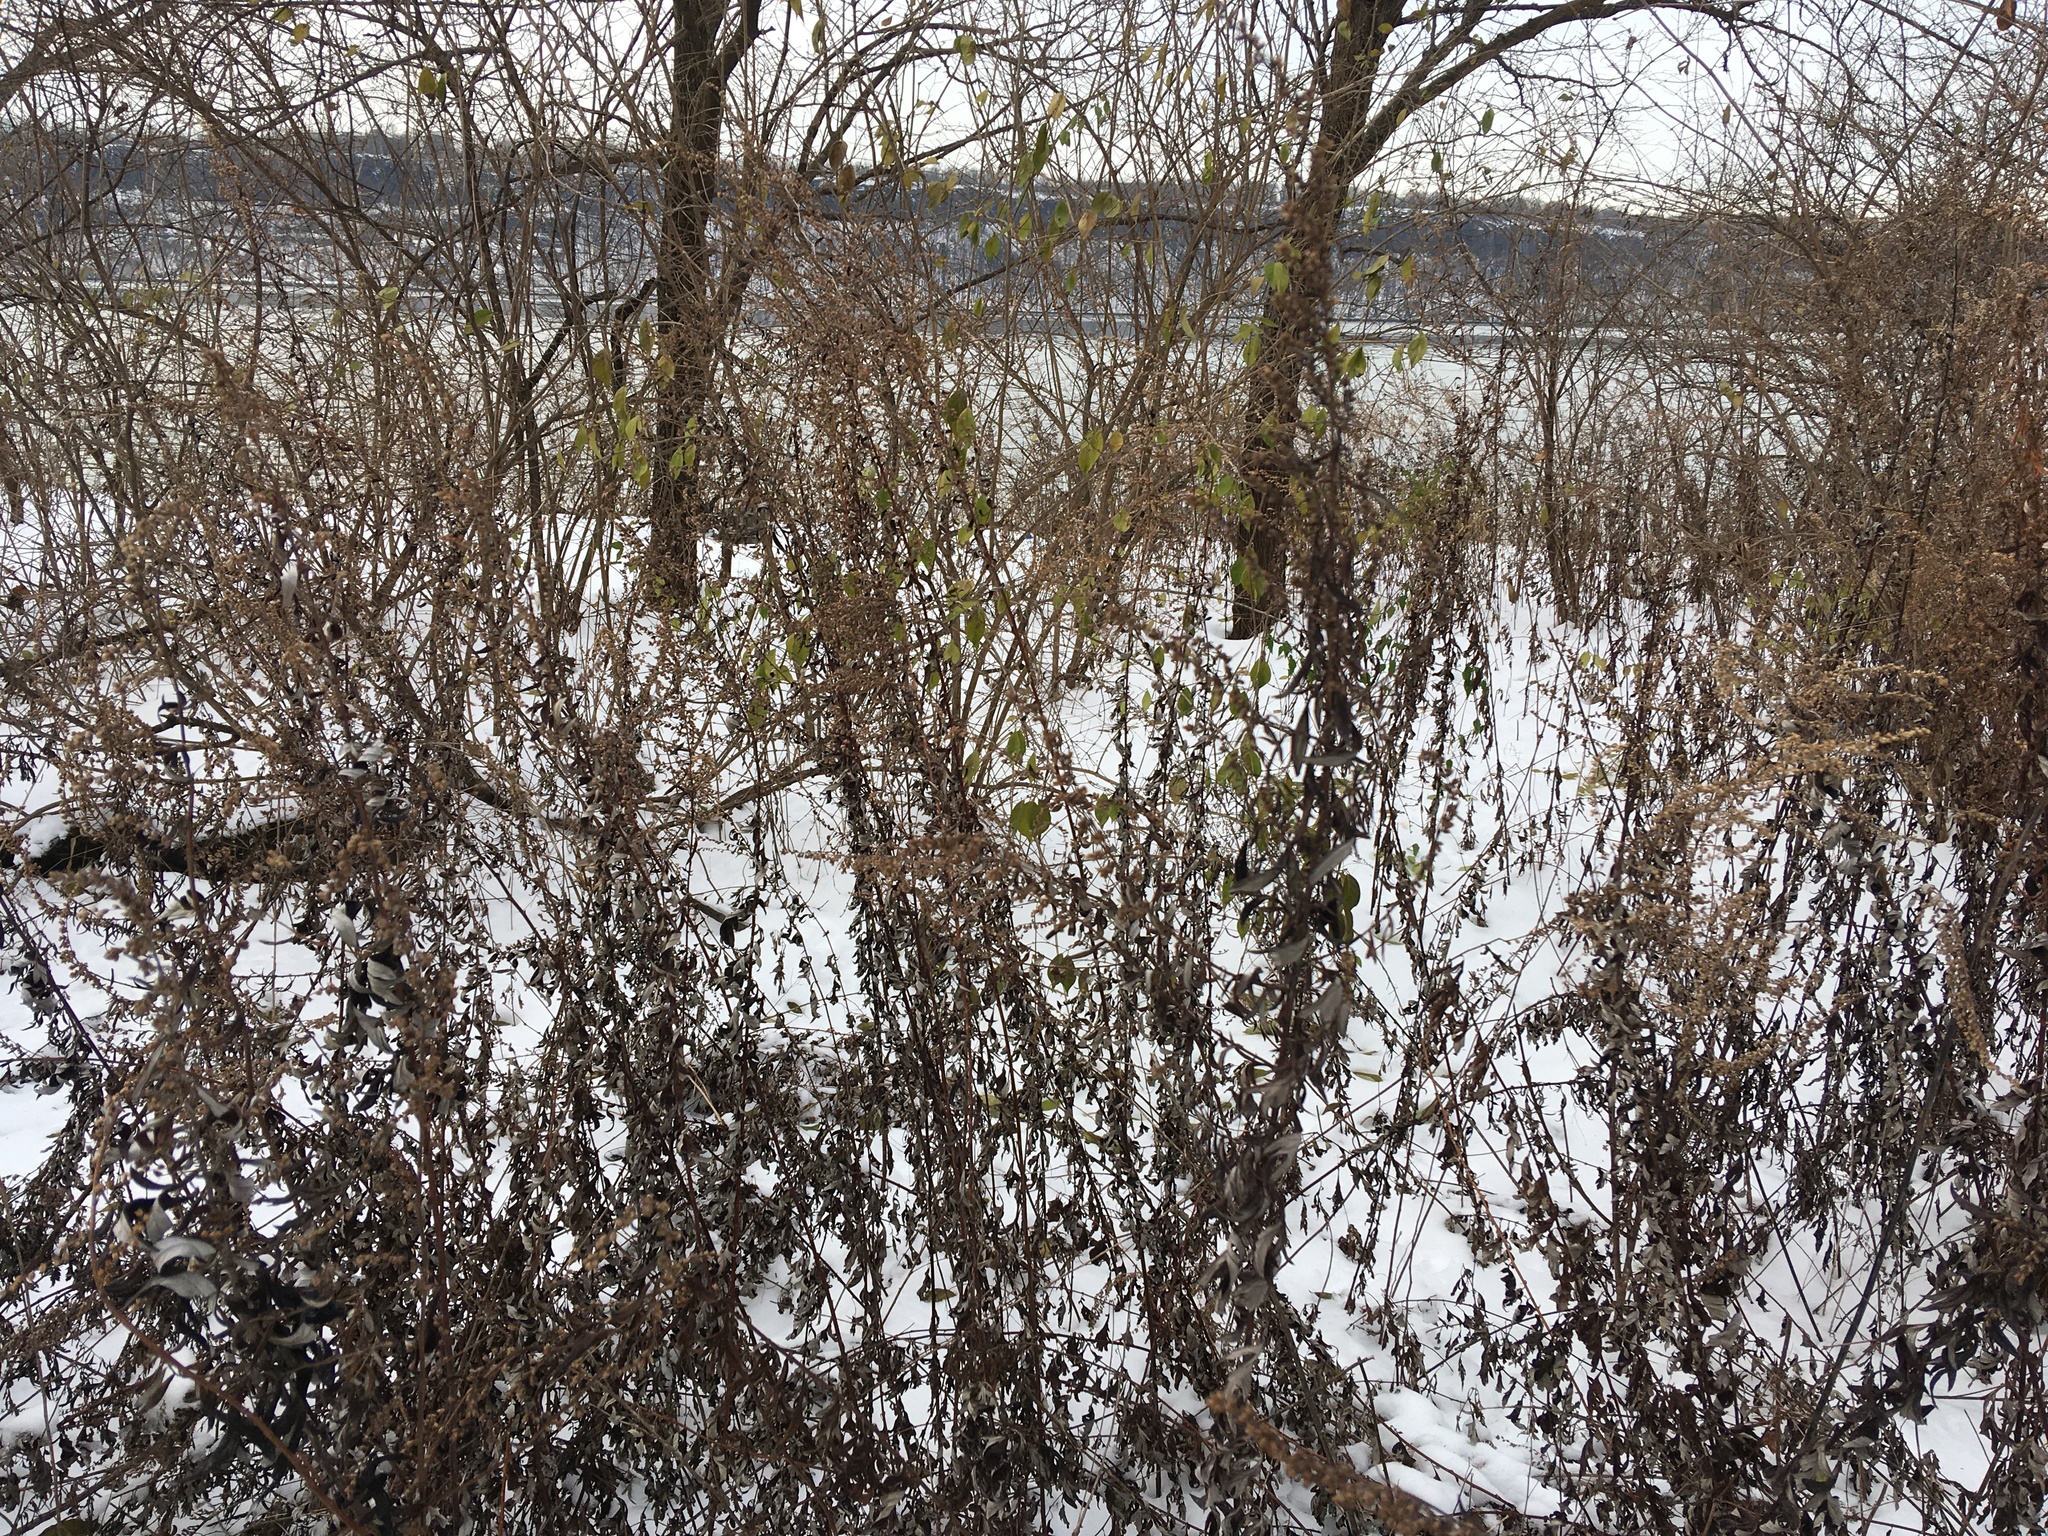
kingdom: Plantae
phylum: Tracheophyta
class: Magnoliopsida
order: Asterales
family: Asteraceae
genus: Artemisia
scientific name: Artemisia vulgaris
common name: Mugwort
